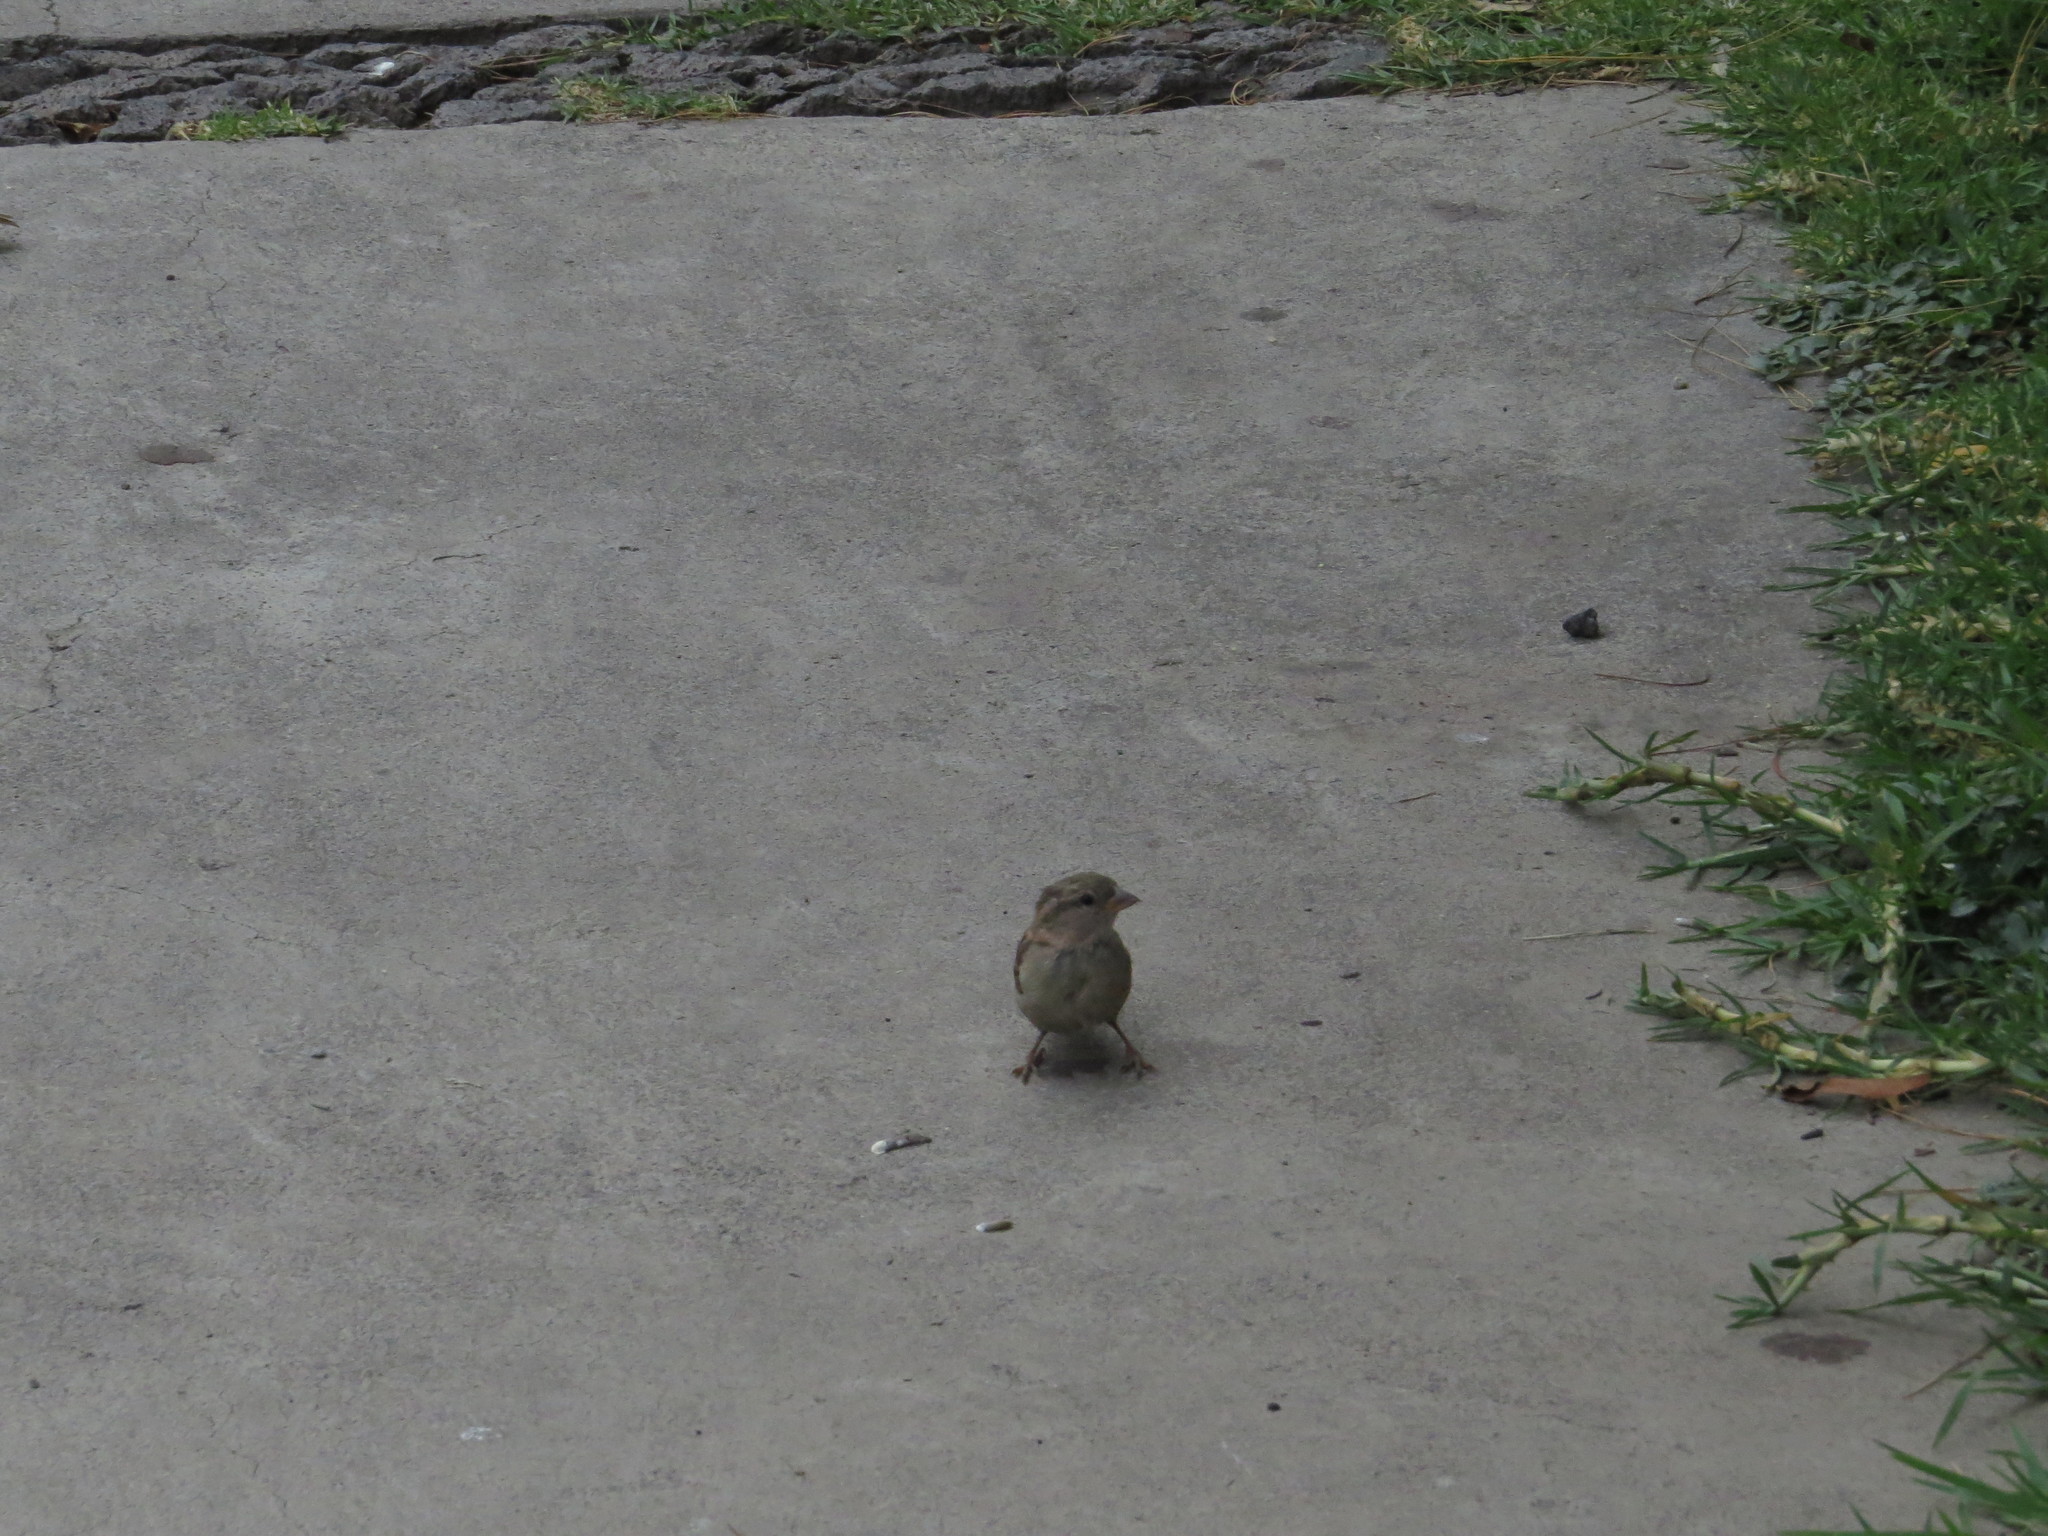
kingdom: Animalia
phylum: Chordata
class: Aves
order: Passeriformes
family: Passeridae
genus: Passer
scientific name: Passer domesticus
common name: House sparrow
